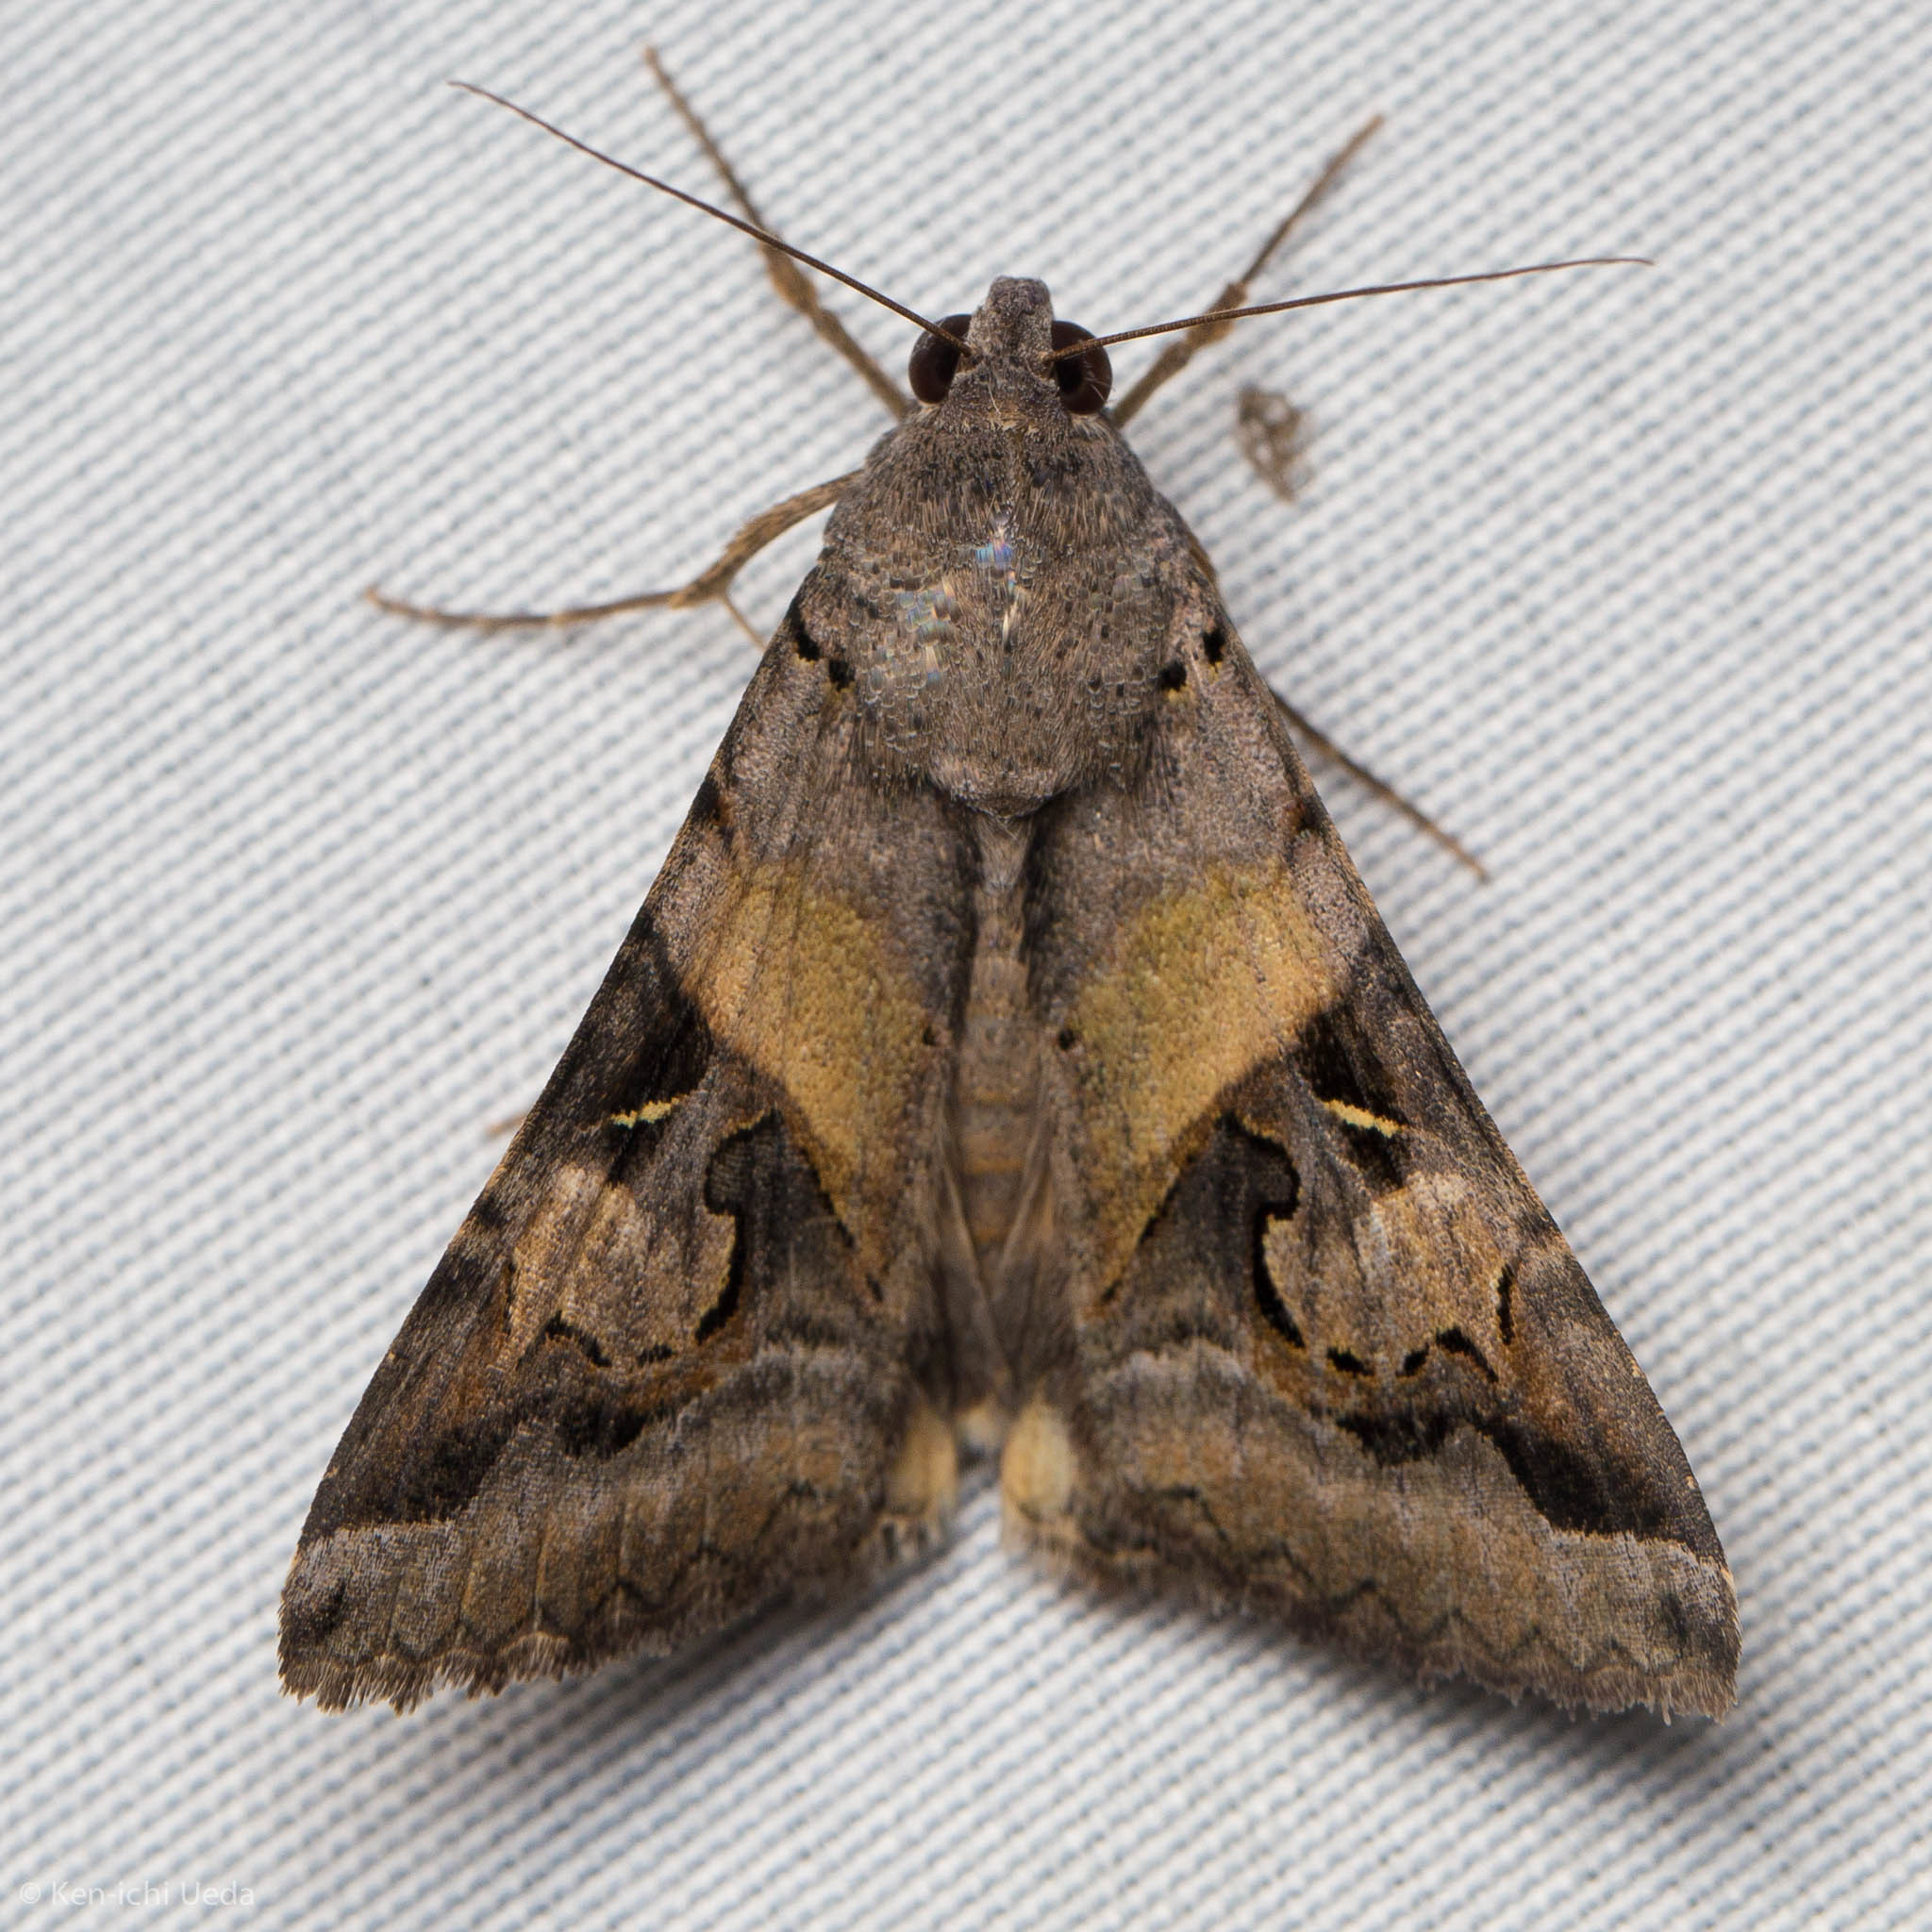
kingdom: Animalia
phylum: Arthropoda
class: Insecta
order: Lepidoptera
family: Erebidae
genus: Melipotis
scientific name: Melipotis indomita
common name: Moth
